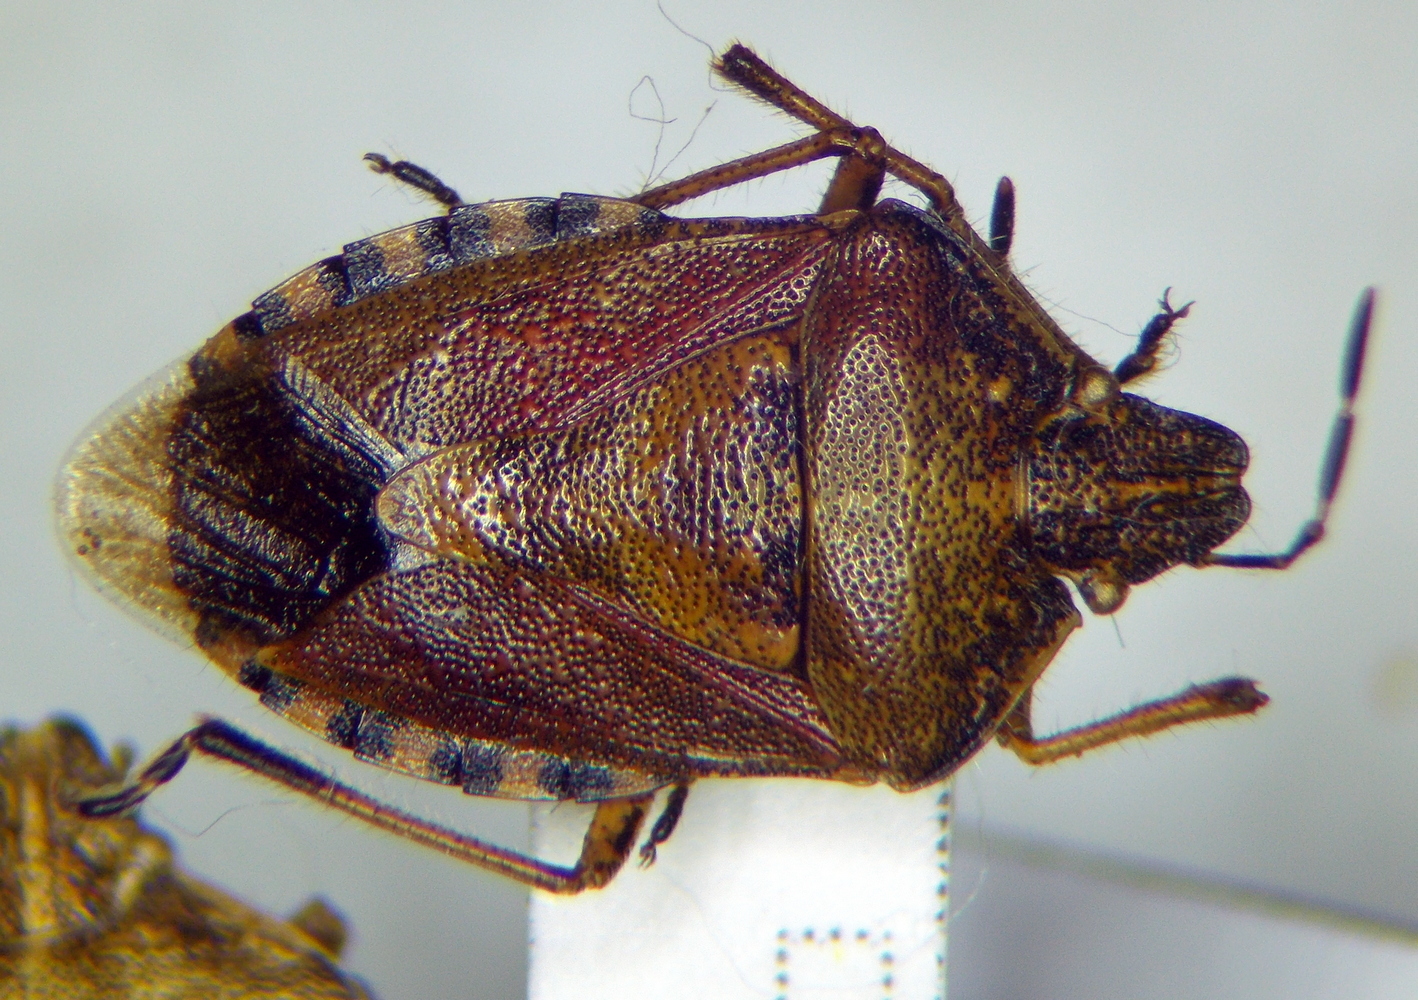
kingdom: Animalia
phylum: Arthropoda
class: Insecta
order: Hemiptera
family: Pentatomidae
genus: Dolycoris
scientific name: Dolycoris baccarum
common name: Sloe bug
